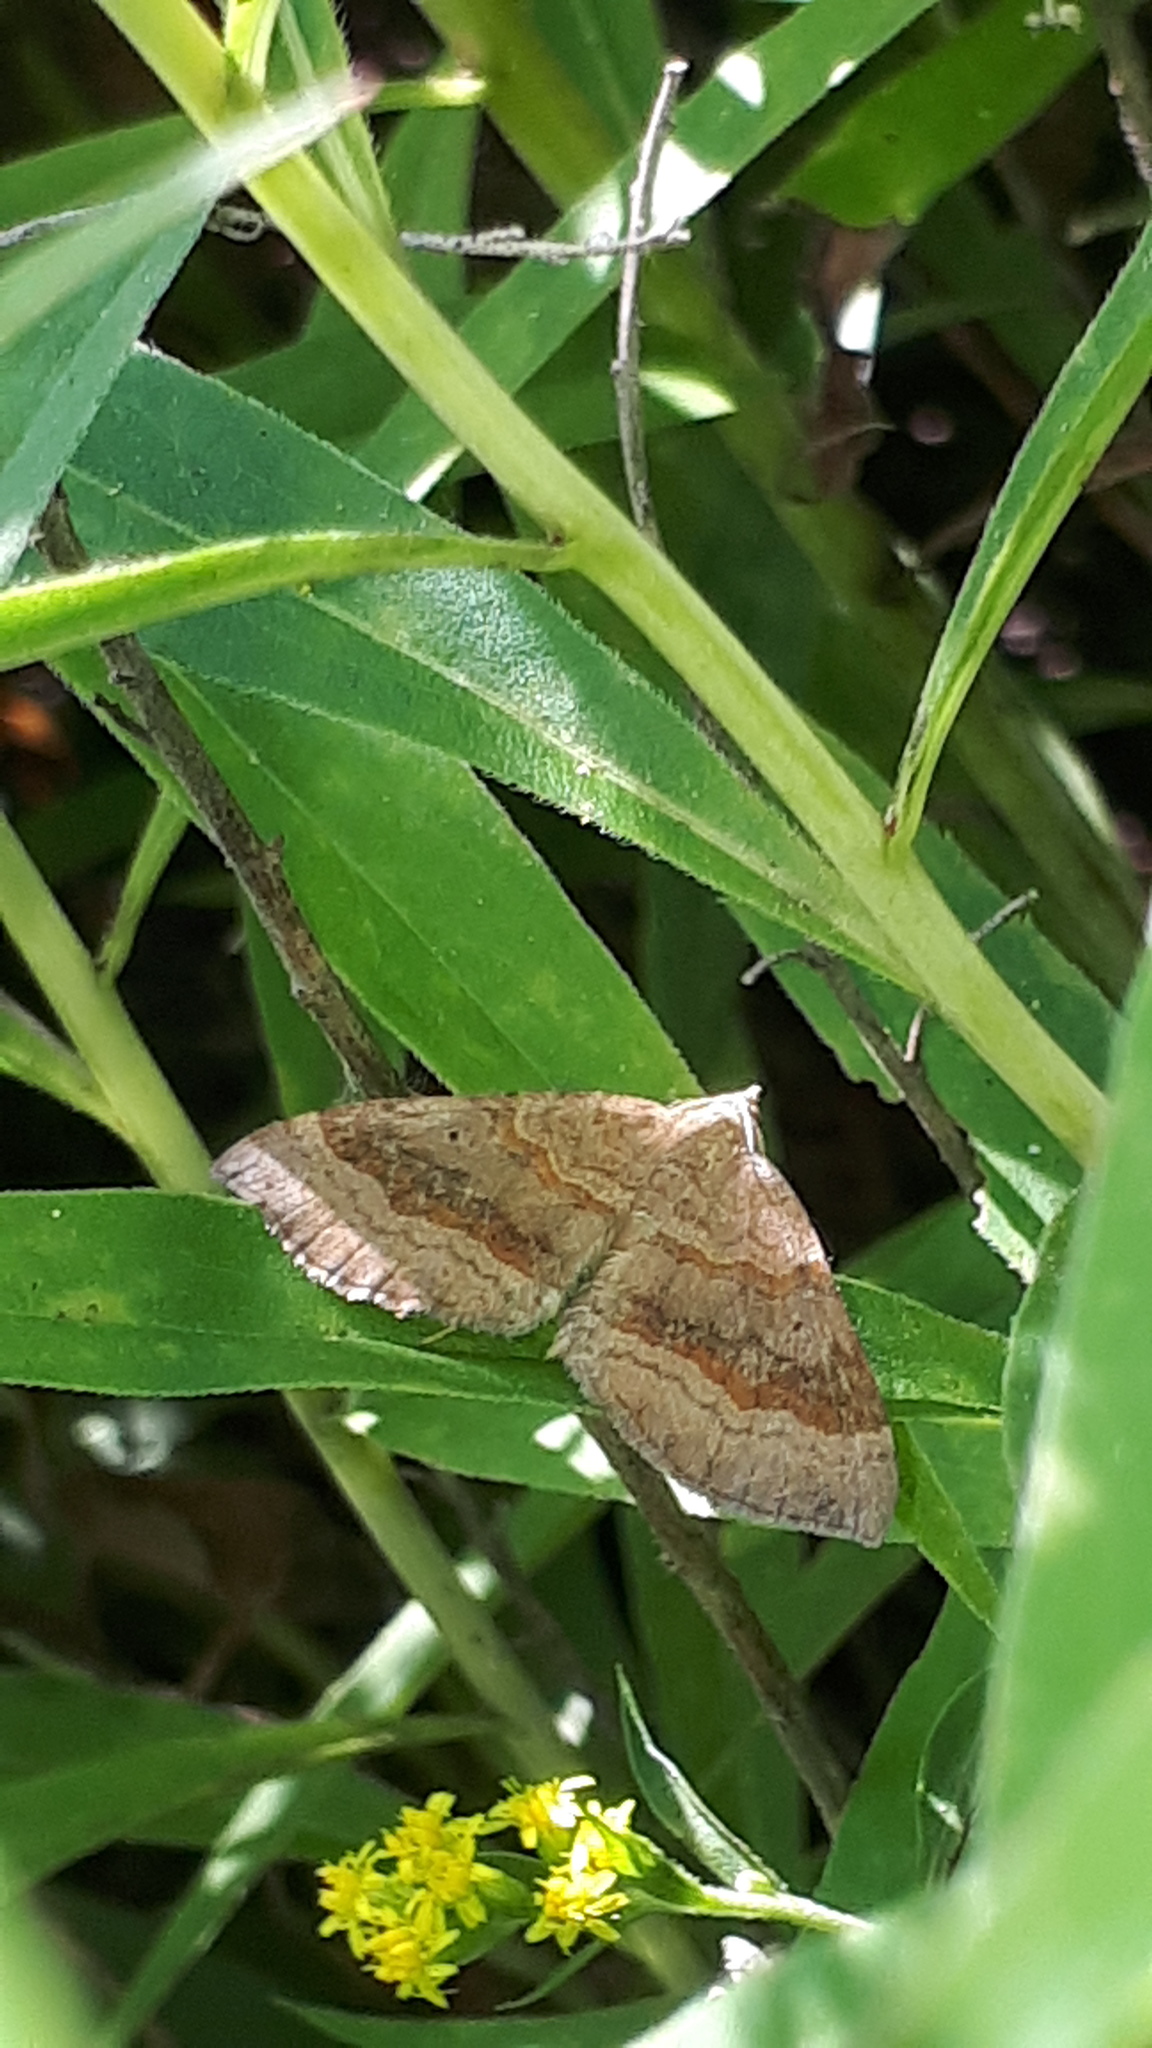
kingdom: Animalia
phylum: Arthropoda
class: Insecta
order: Lepidoptera
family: Geometridae
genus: Scotopteryx
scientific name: Scotopteryx chenopodiata
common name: Shaded broad-bar
